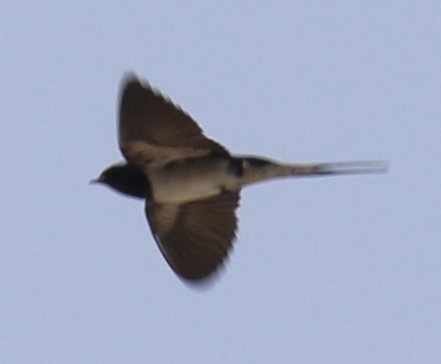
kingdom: Animalia
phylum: Chordata
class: Aves
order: Passeriformes
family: Hirundinidae
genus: Hirundo
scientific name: Hirundo rustica
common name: Barn swallow
